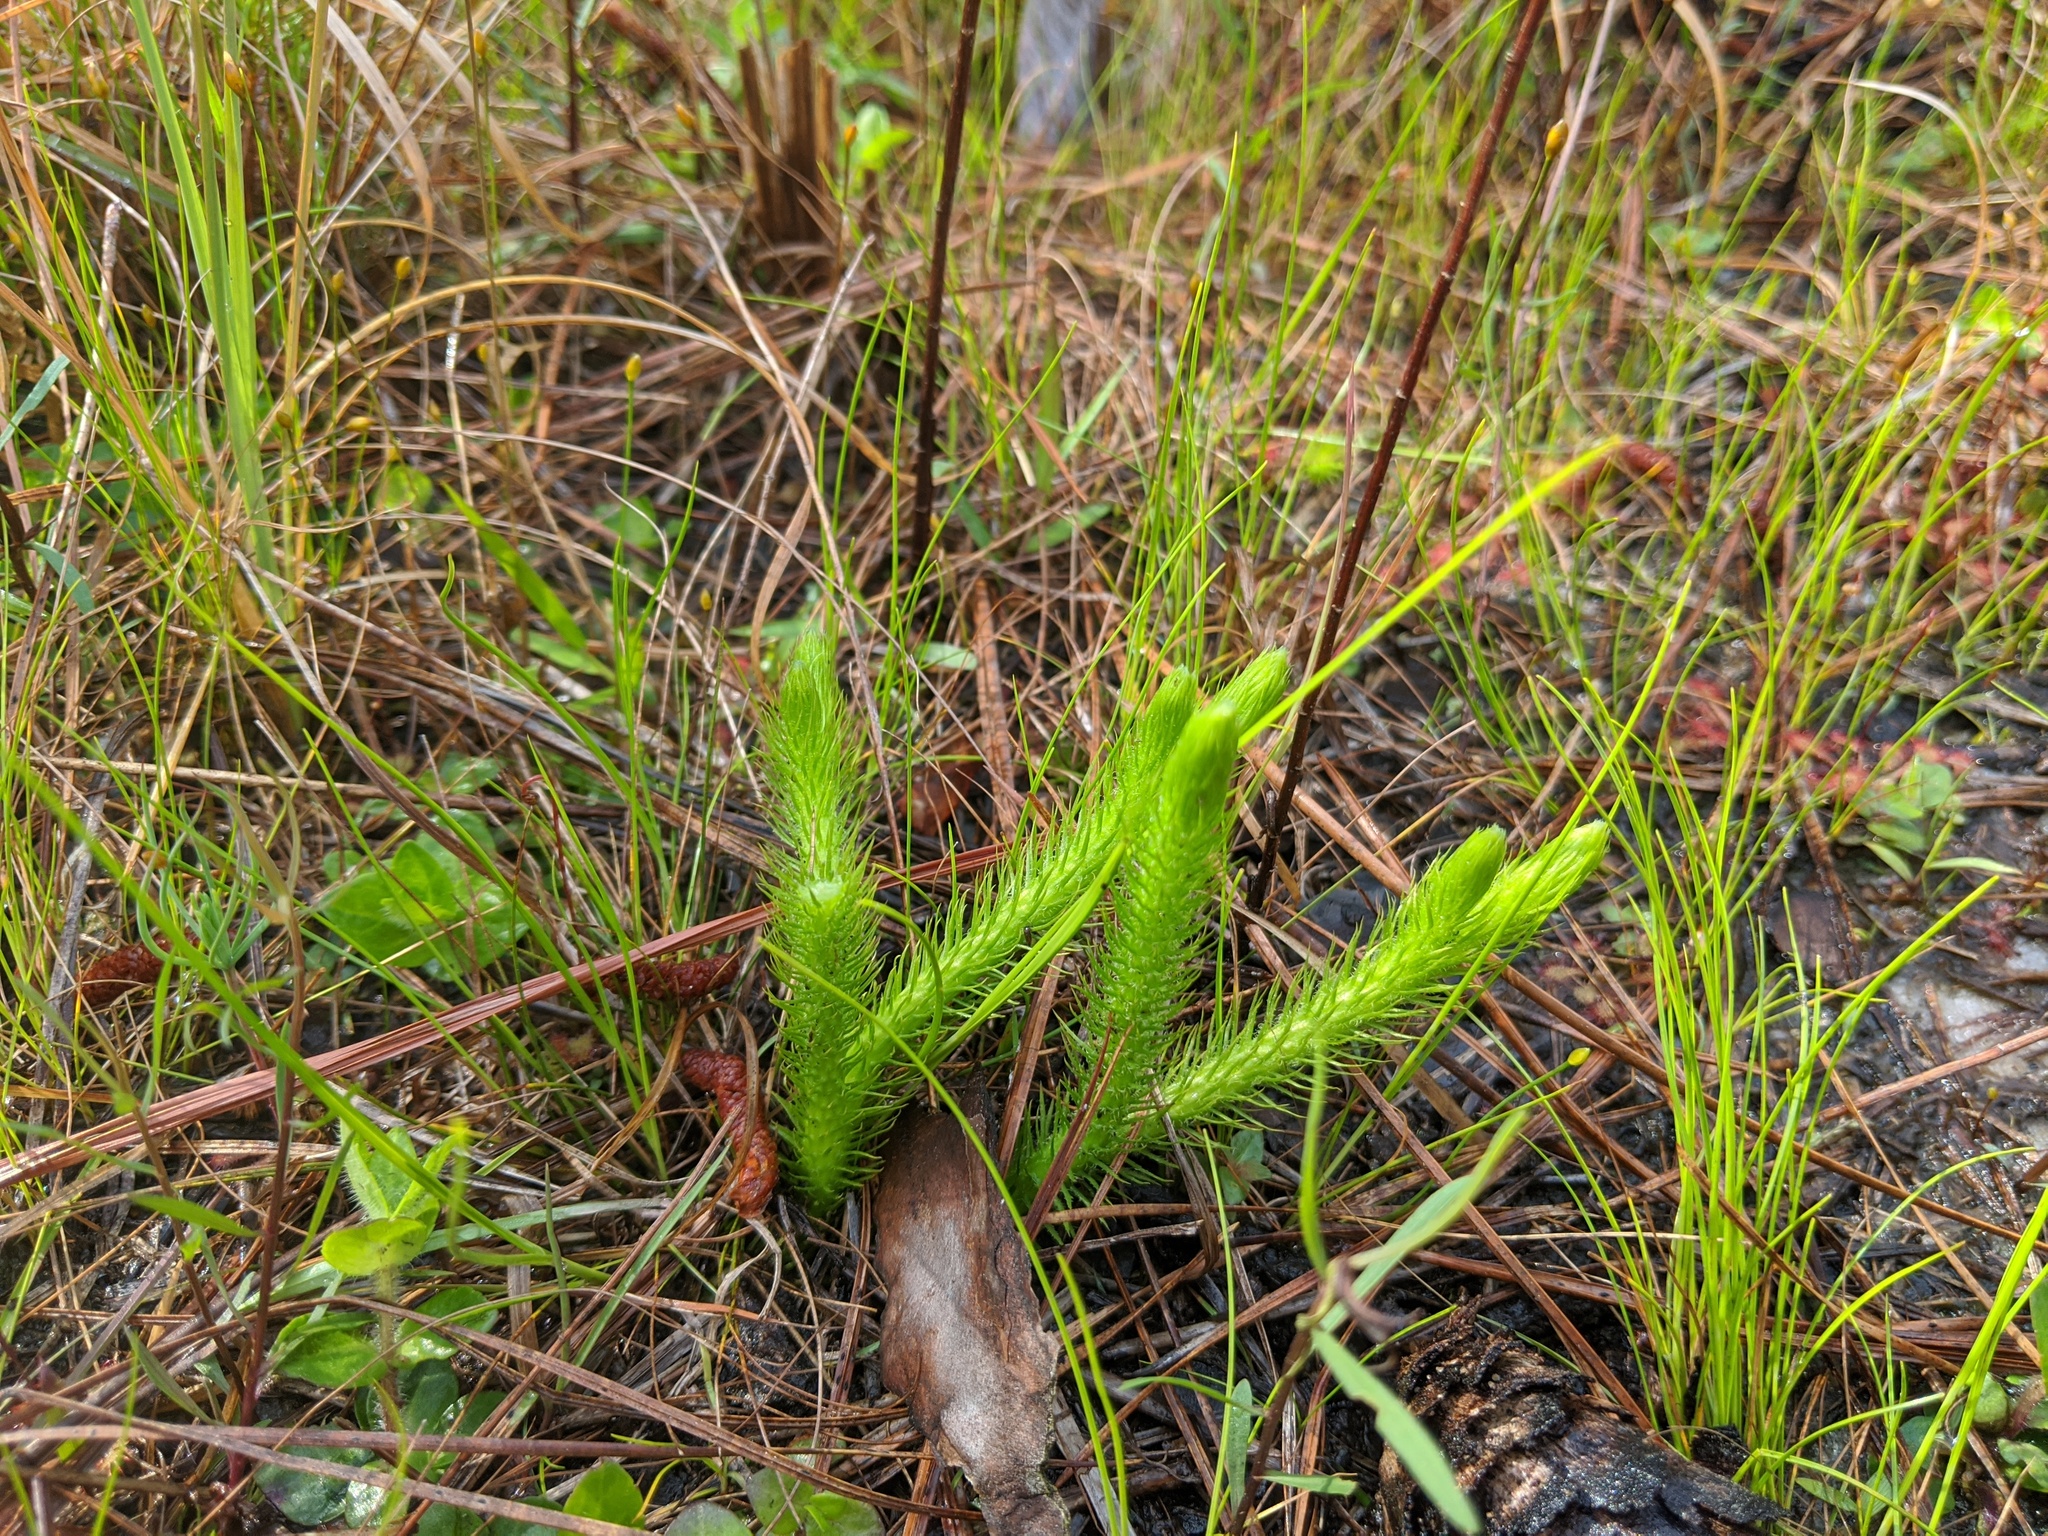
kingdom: Plantae
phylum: Tracheophyta
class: Lycopodiopsida
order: Lycopodiales
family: Lycopodiaceae
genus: Lycopodiella
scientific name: Lycopodiella alopecuroides
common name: Foxtail clubmoss
